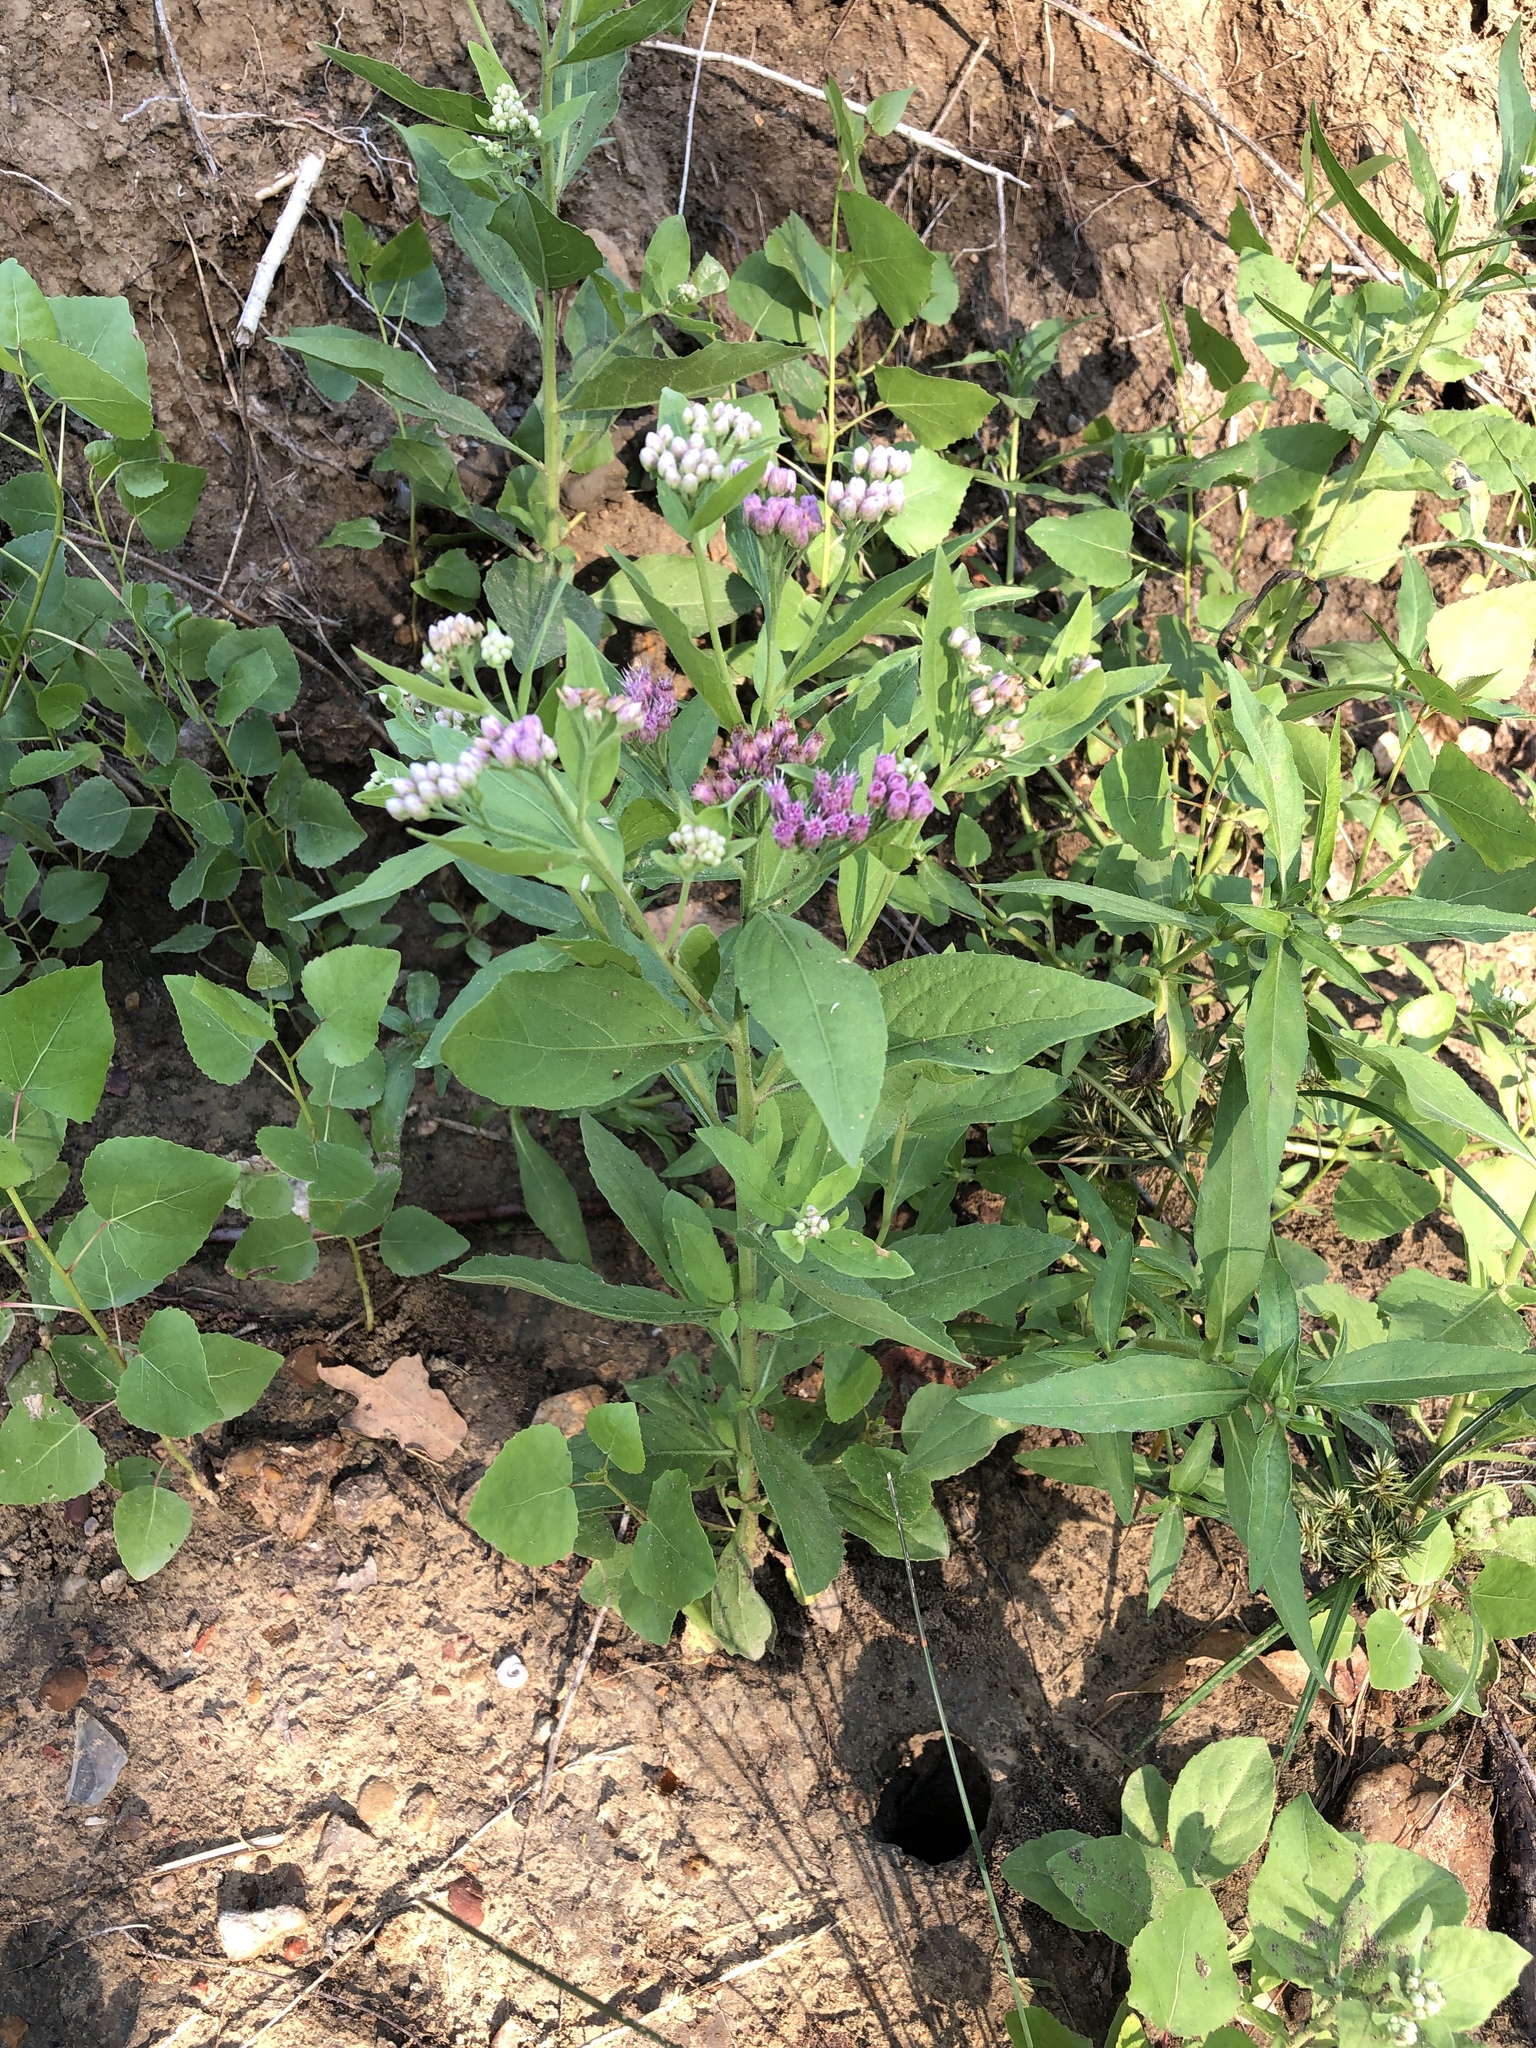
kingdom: Plantae
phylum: Tracheophyta
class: Magnoliopsida
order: Asterales
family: Asteraceae
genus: Pluchea
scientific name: Pluchea odorata
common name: Saltmarsh fleabane
